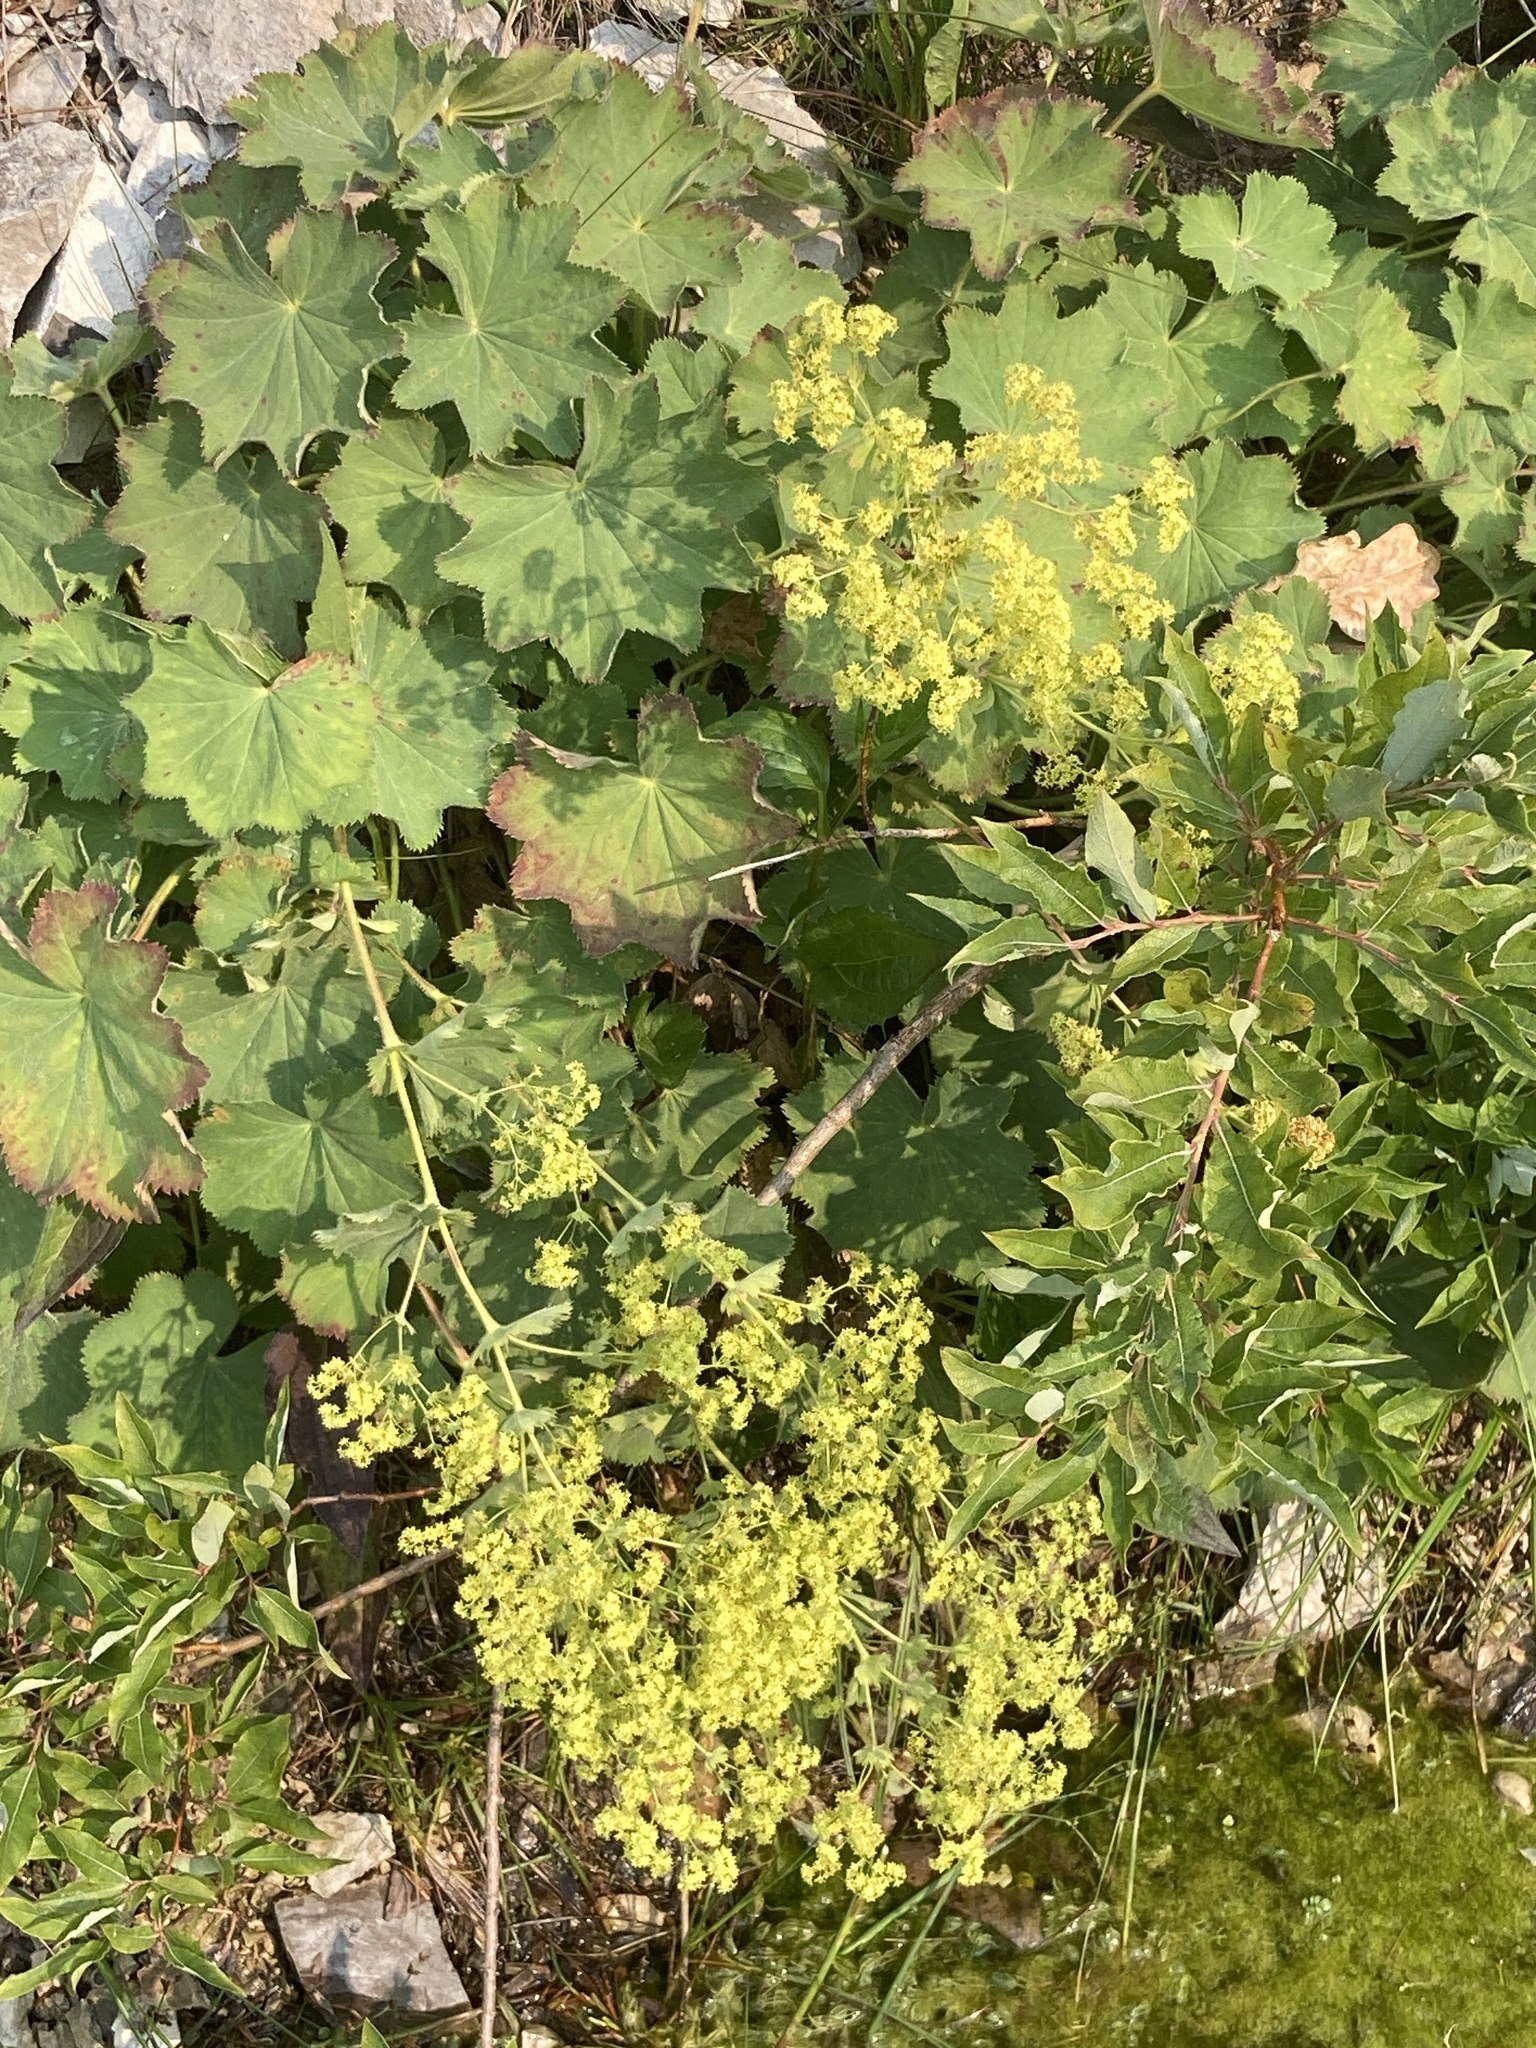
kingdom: Plantae
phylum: Tracheophyta
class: Magnoliopsida
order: Rosales
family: Rosaceae
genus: Alchemilla
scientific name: Alchemilla mollis
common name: Lady's-mantle
